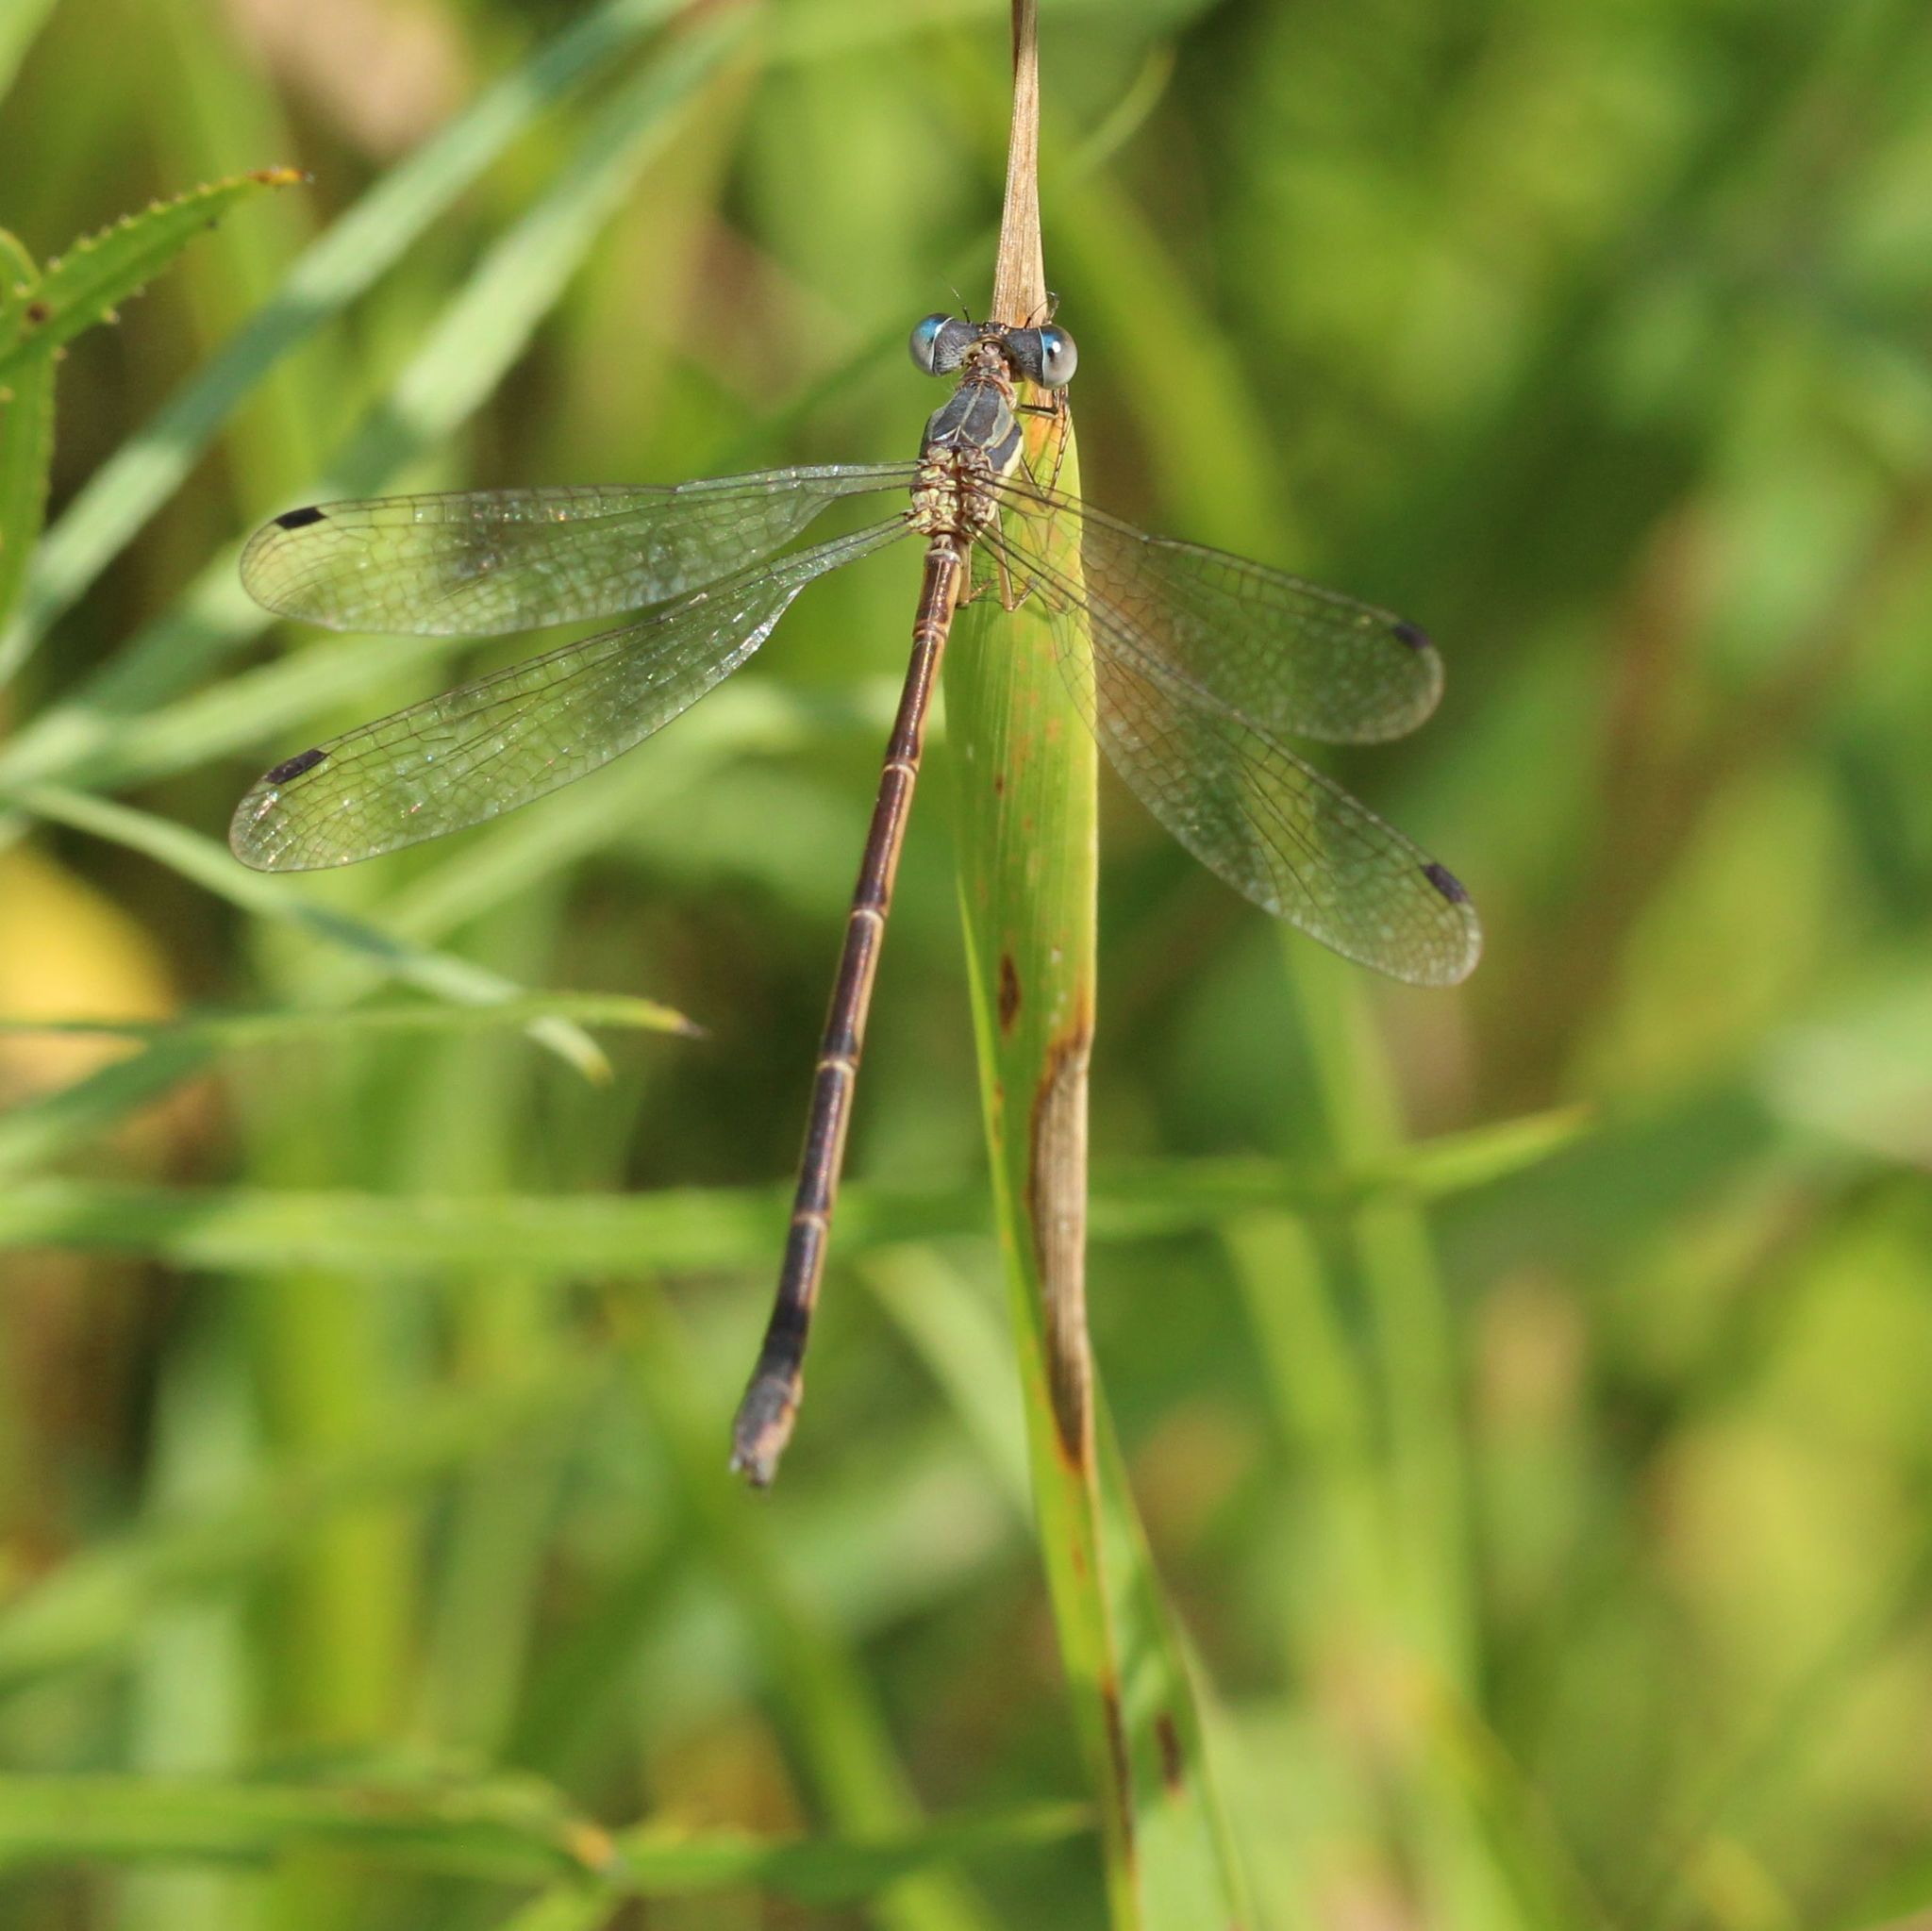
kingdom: Animalia
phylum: Arthropoda
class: Insecta
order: Odonata
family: Lestidae
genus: Lestes
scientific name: Lestes rectangularis
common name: Slender spreadwing
